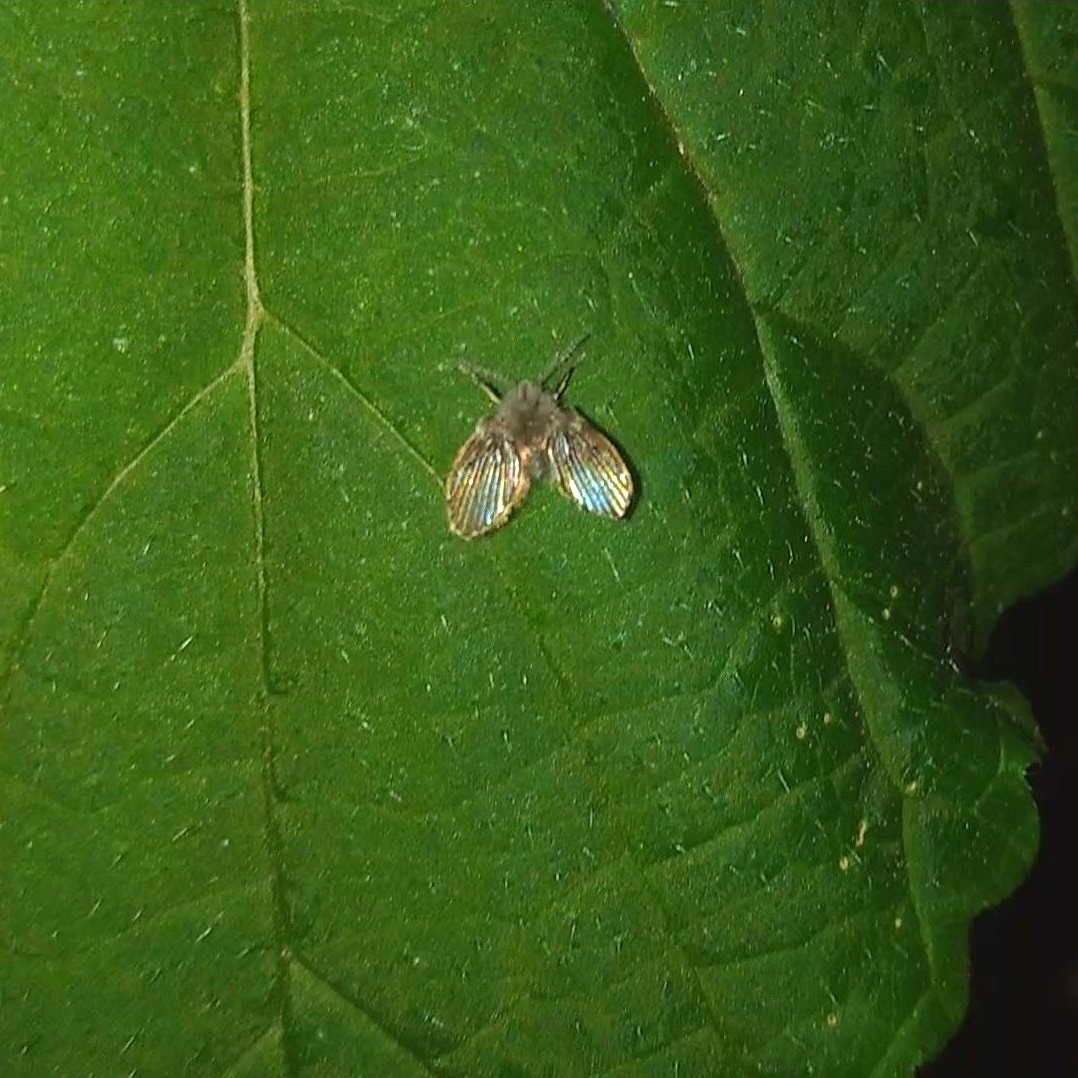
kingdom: Animalia
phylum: Arthropoda
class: Insecta
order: Diptera
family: Psychodidae
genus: Clogmia
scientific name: Clogmia albipunctatus
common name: White-spotted moth fly
